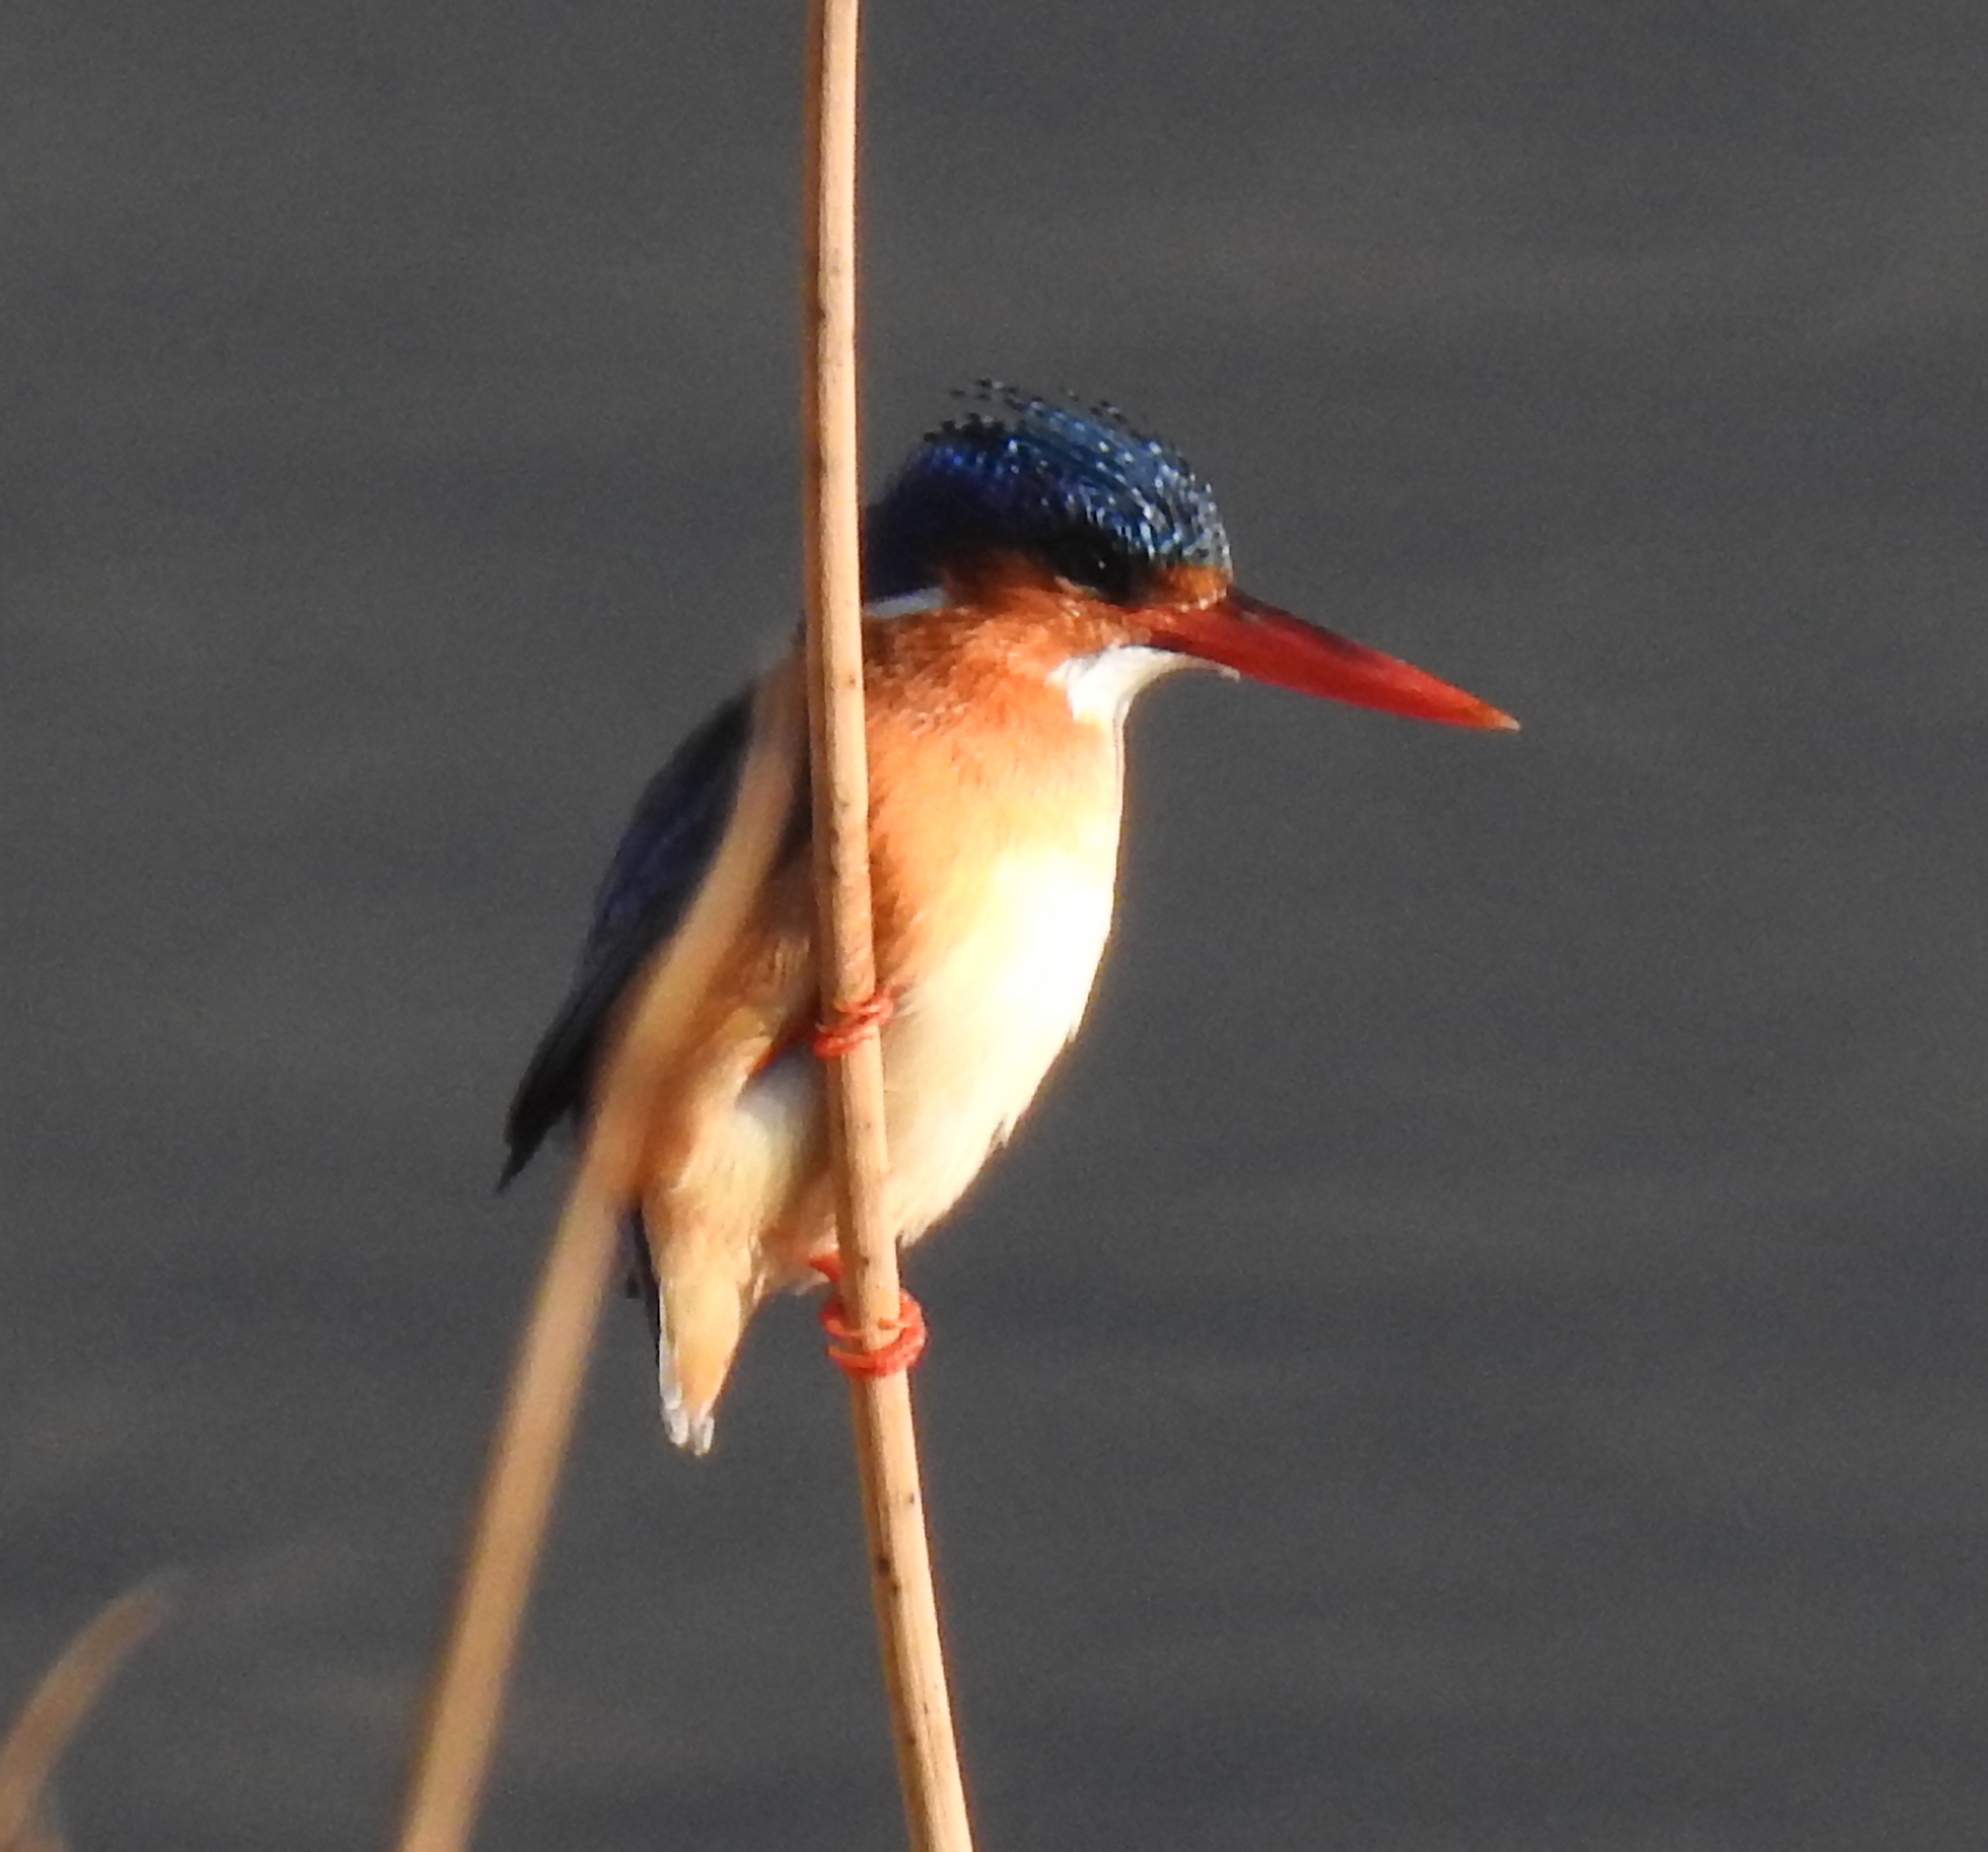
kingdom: Animalia
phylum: Chordata
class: Aves
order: Coraciiformes
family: Alcedinidae
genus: Corythornis
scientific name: Corythornis cristatus
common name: Malachite kingfisher
